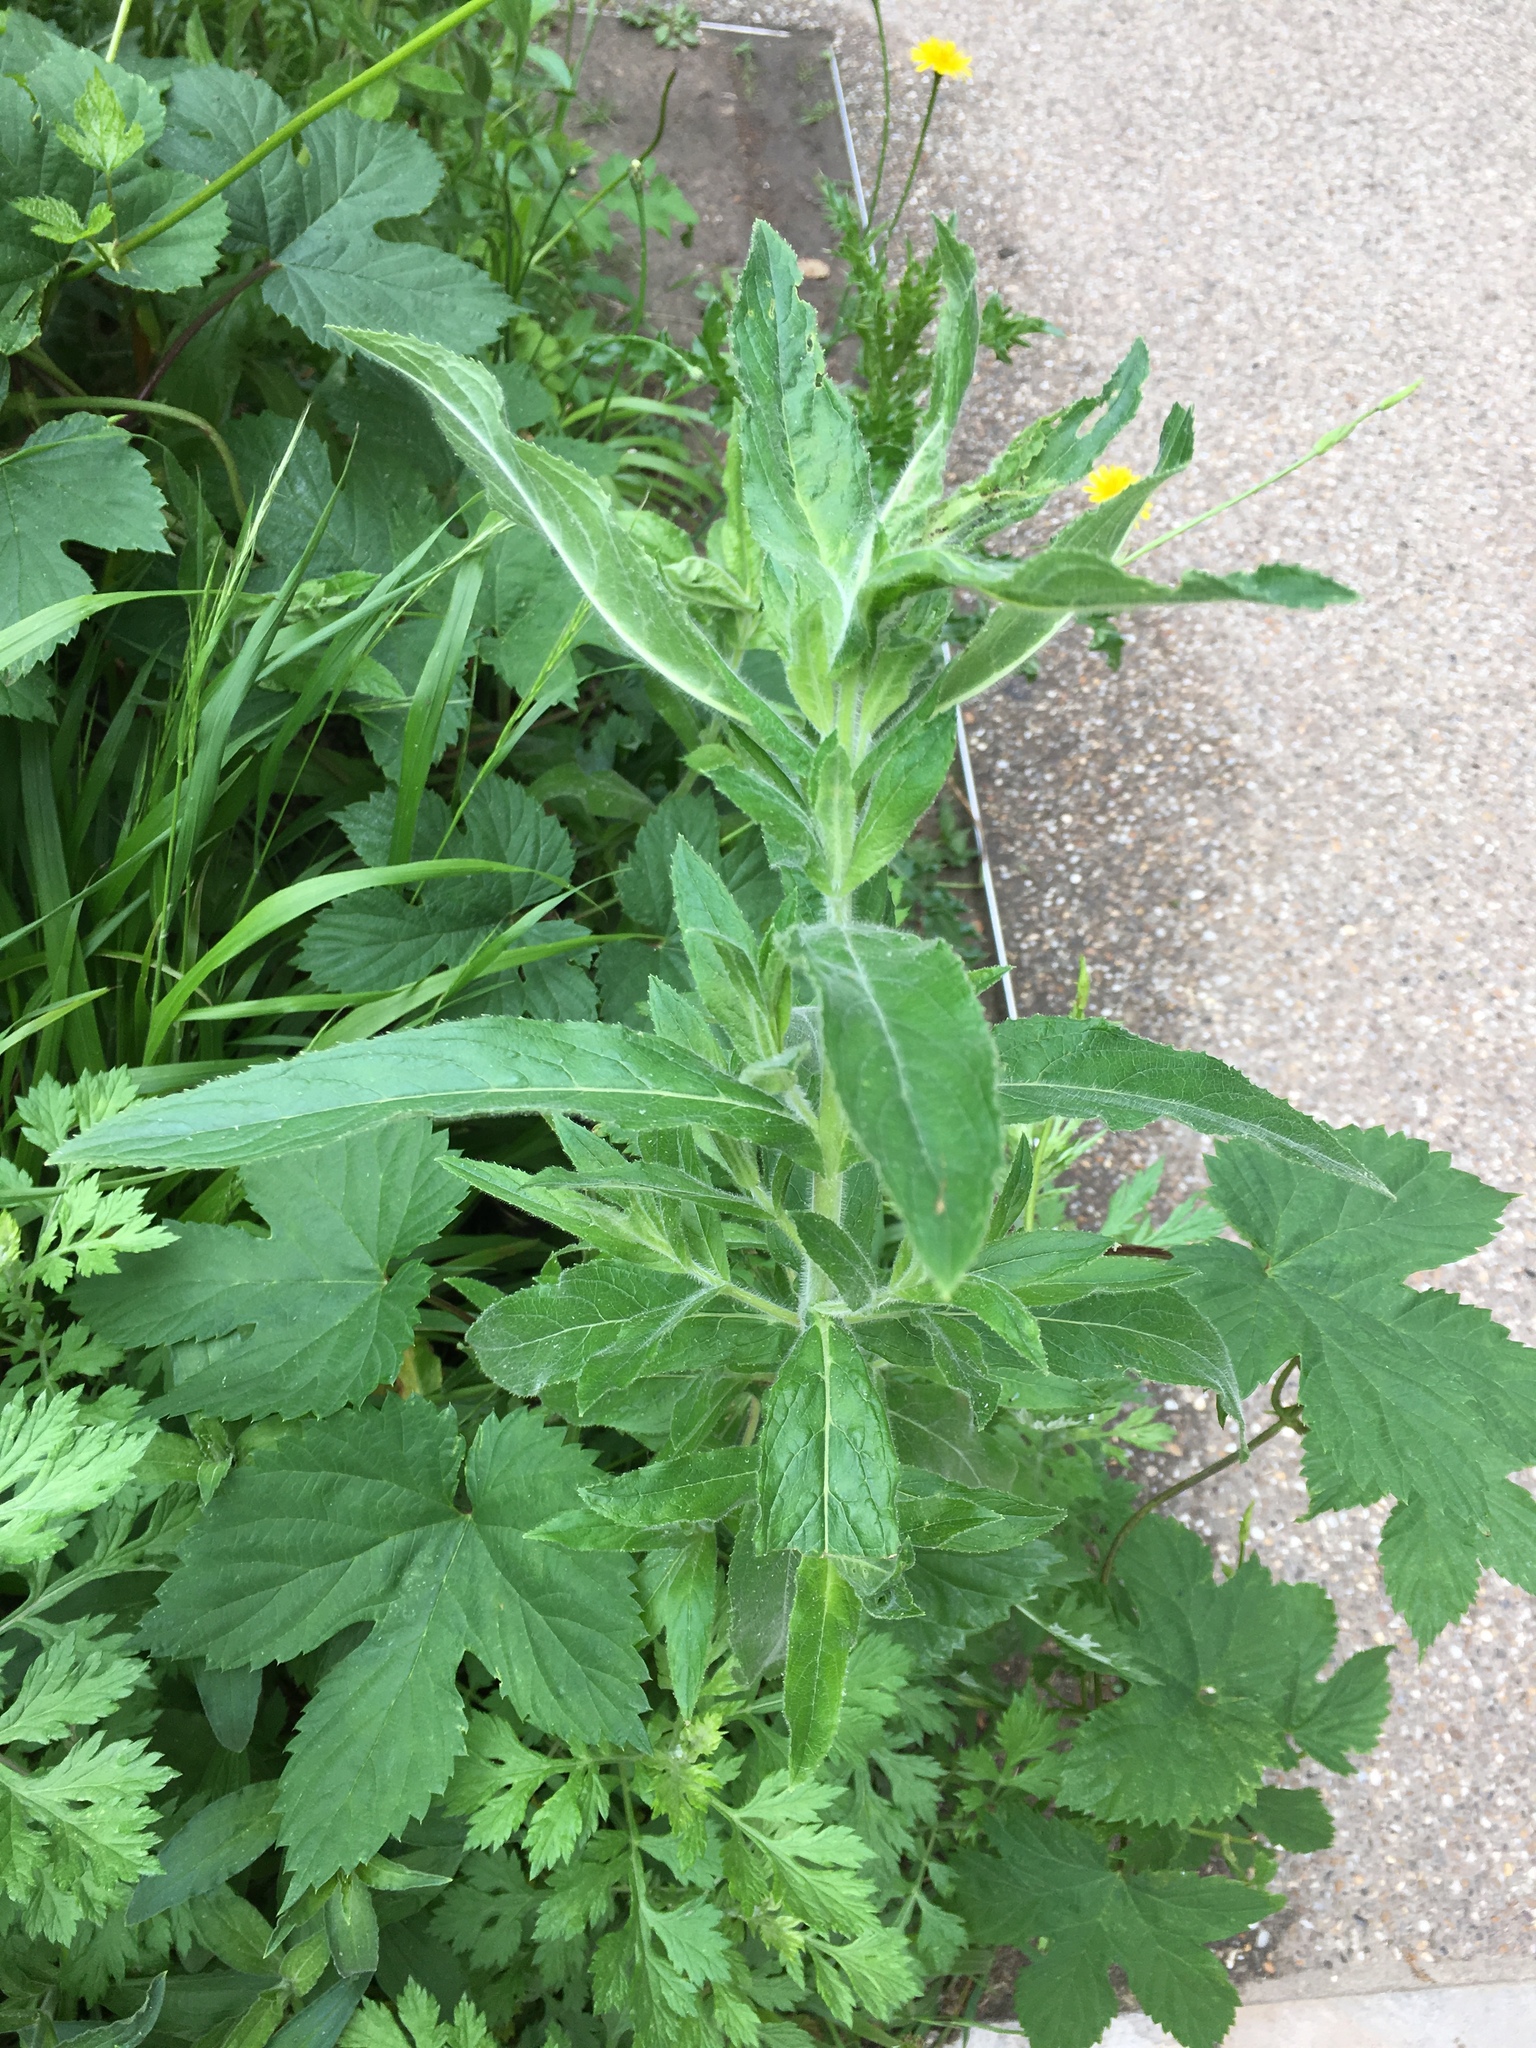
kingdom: Plantae
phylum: Tracheophyta
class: Magnoliopsida
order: Myrtales
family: Onagraceae
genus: Epilobium
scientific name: Epilobium hirsutum
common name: Great willowherb
